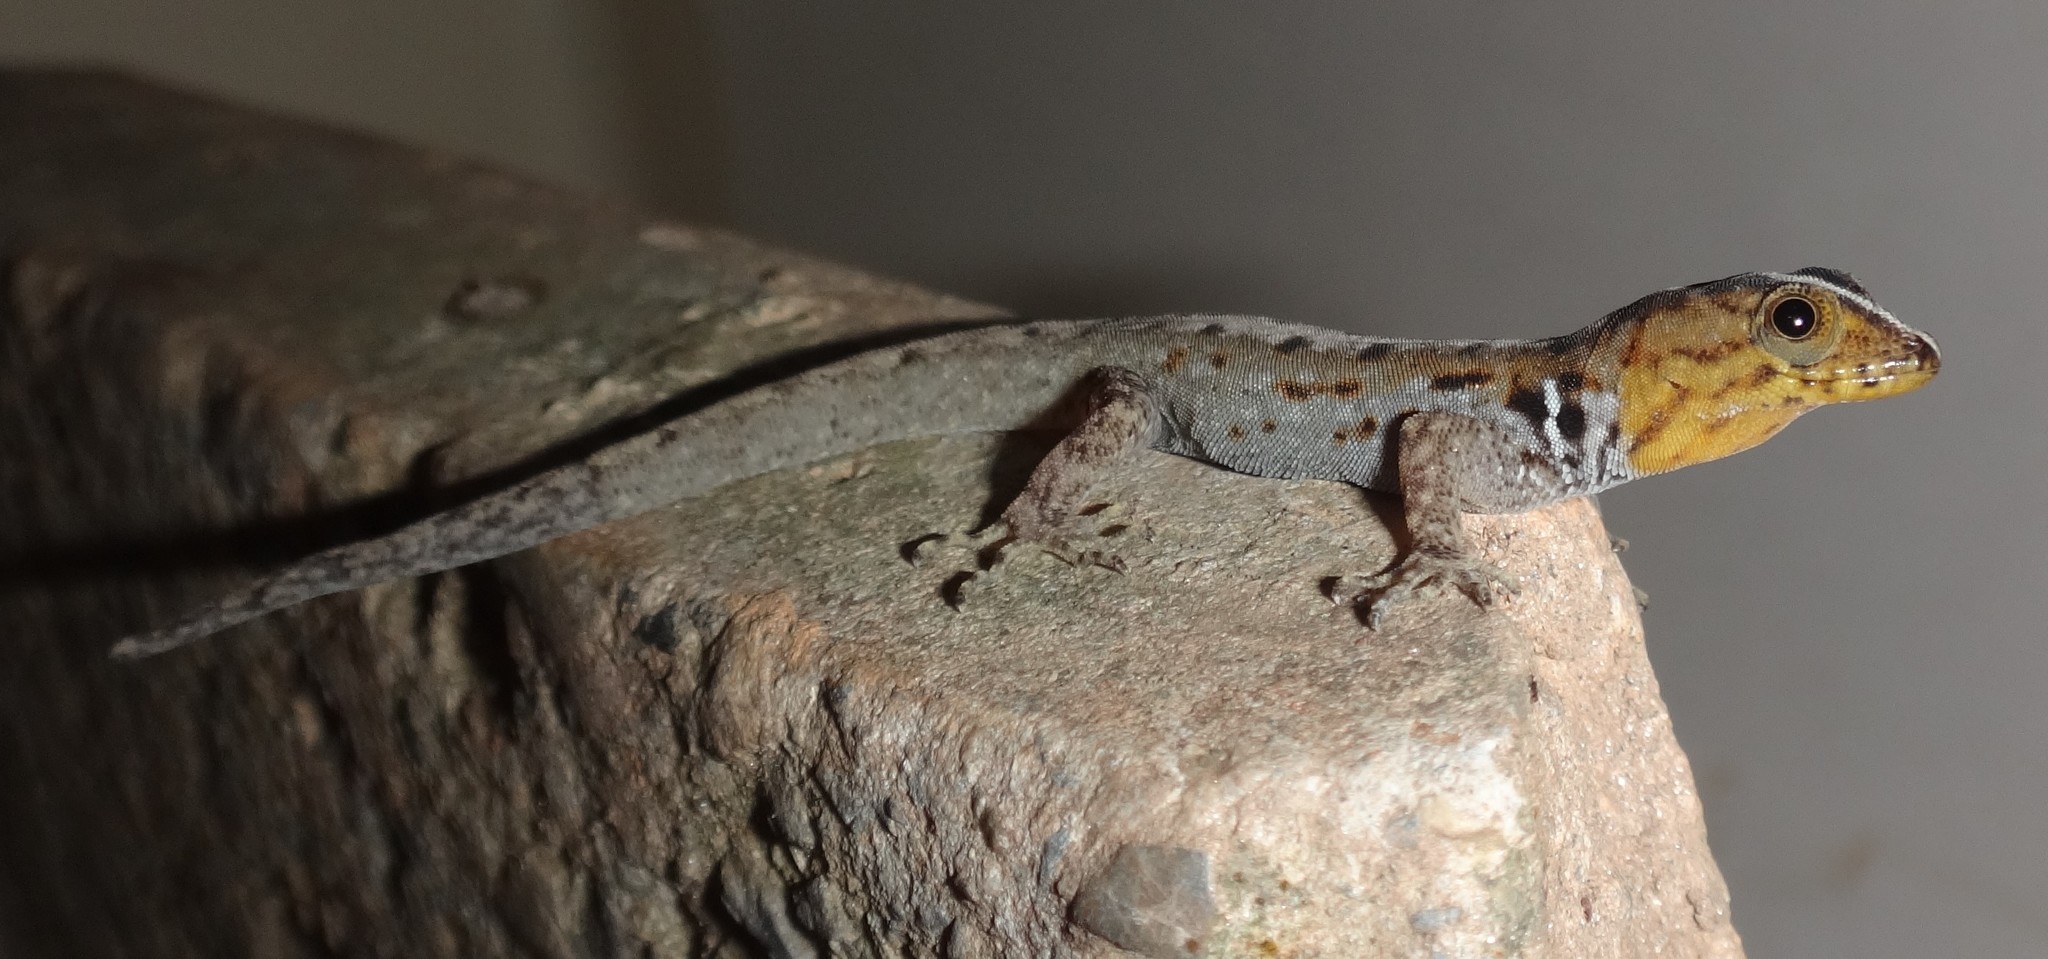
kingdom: Animalia
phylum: Chordata
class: Squamata
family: Sphaerodactylidae
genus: Gonatodes
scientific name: Gonatodes vittatus
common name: Wiegmann's striped gecko
